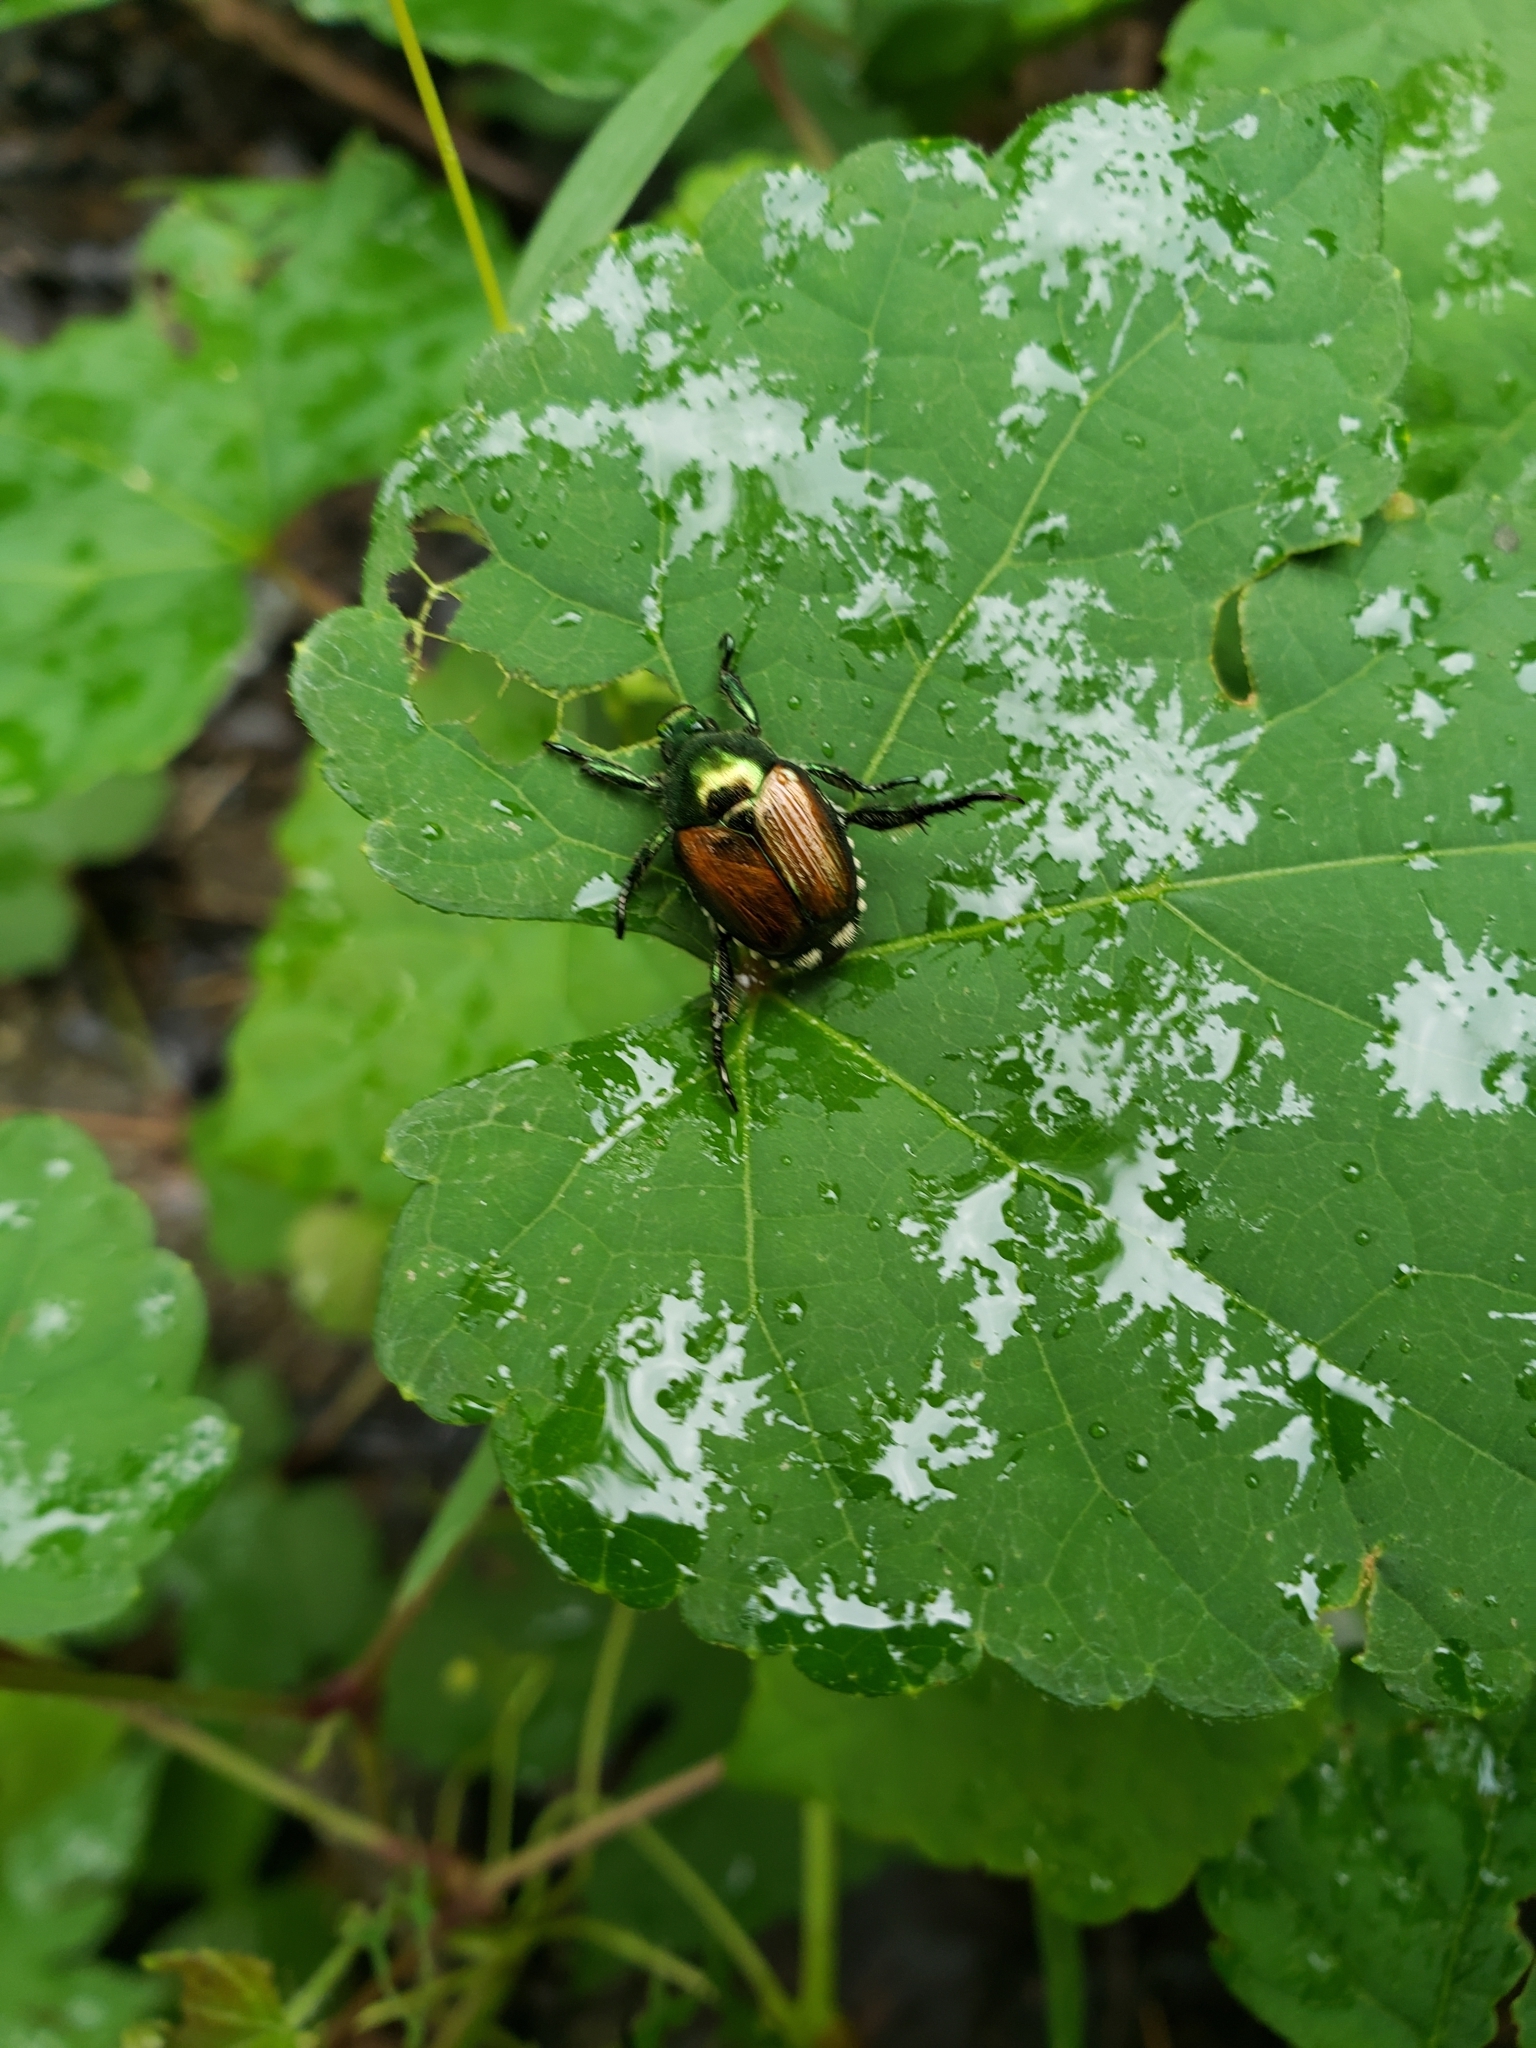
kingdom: Animalia
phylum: Arthropoda
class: Insecta
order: Coleoptera
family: Scarabaeidae
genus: Popillia
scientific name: Popillia japonica
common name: Japanese beetle
